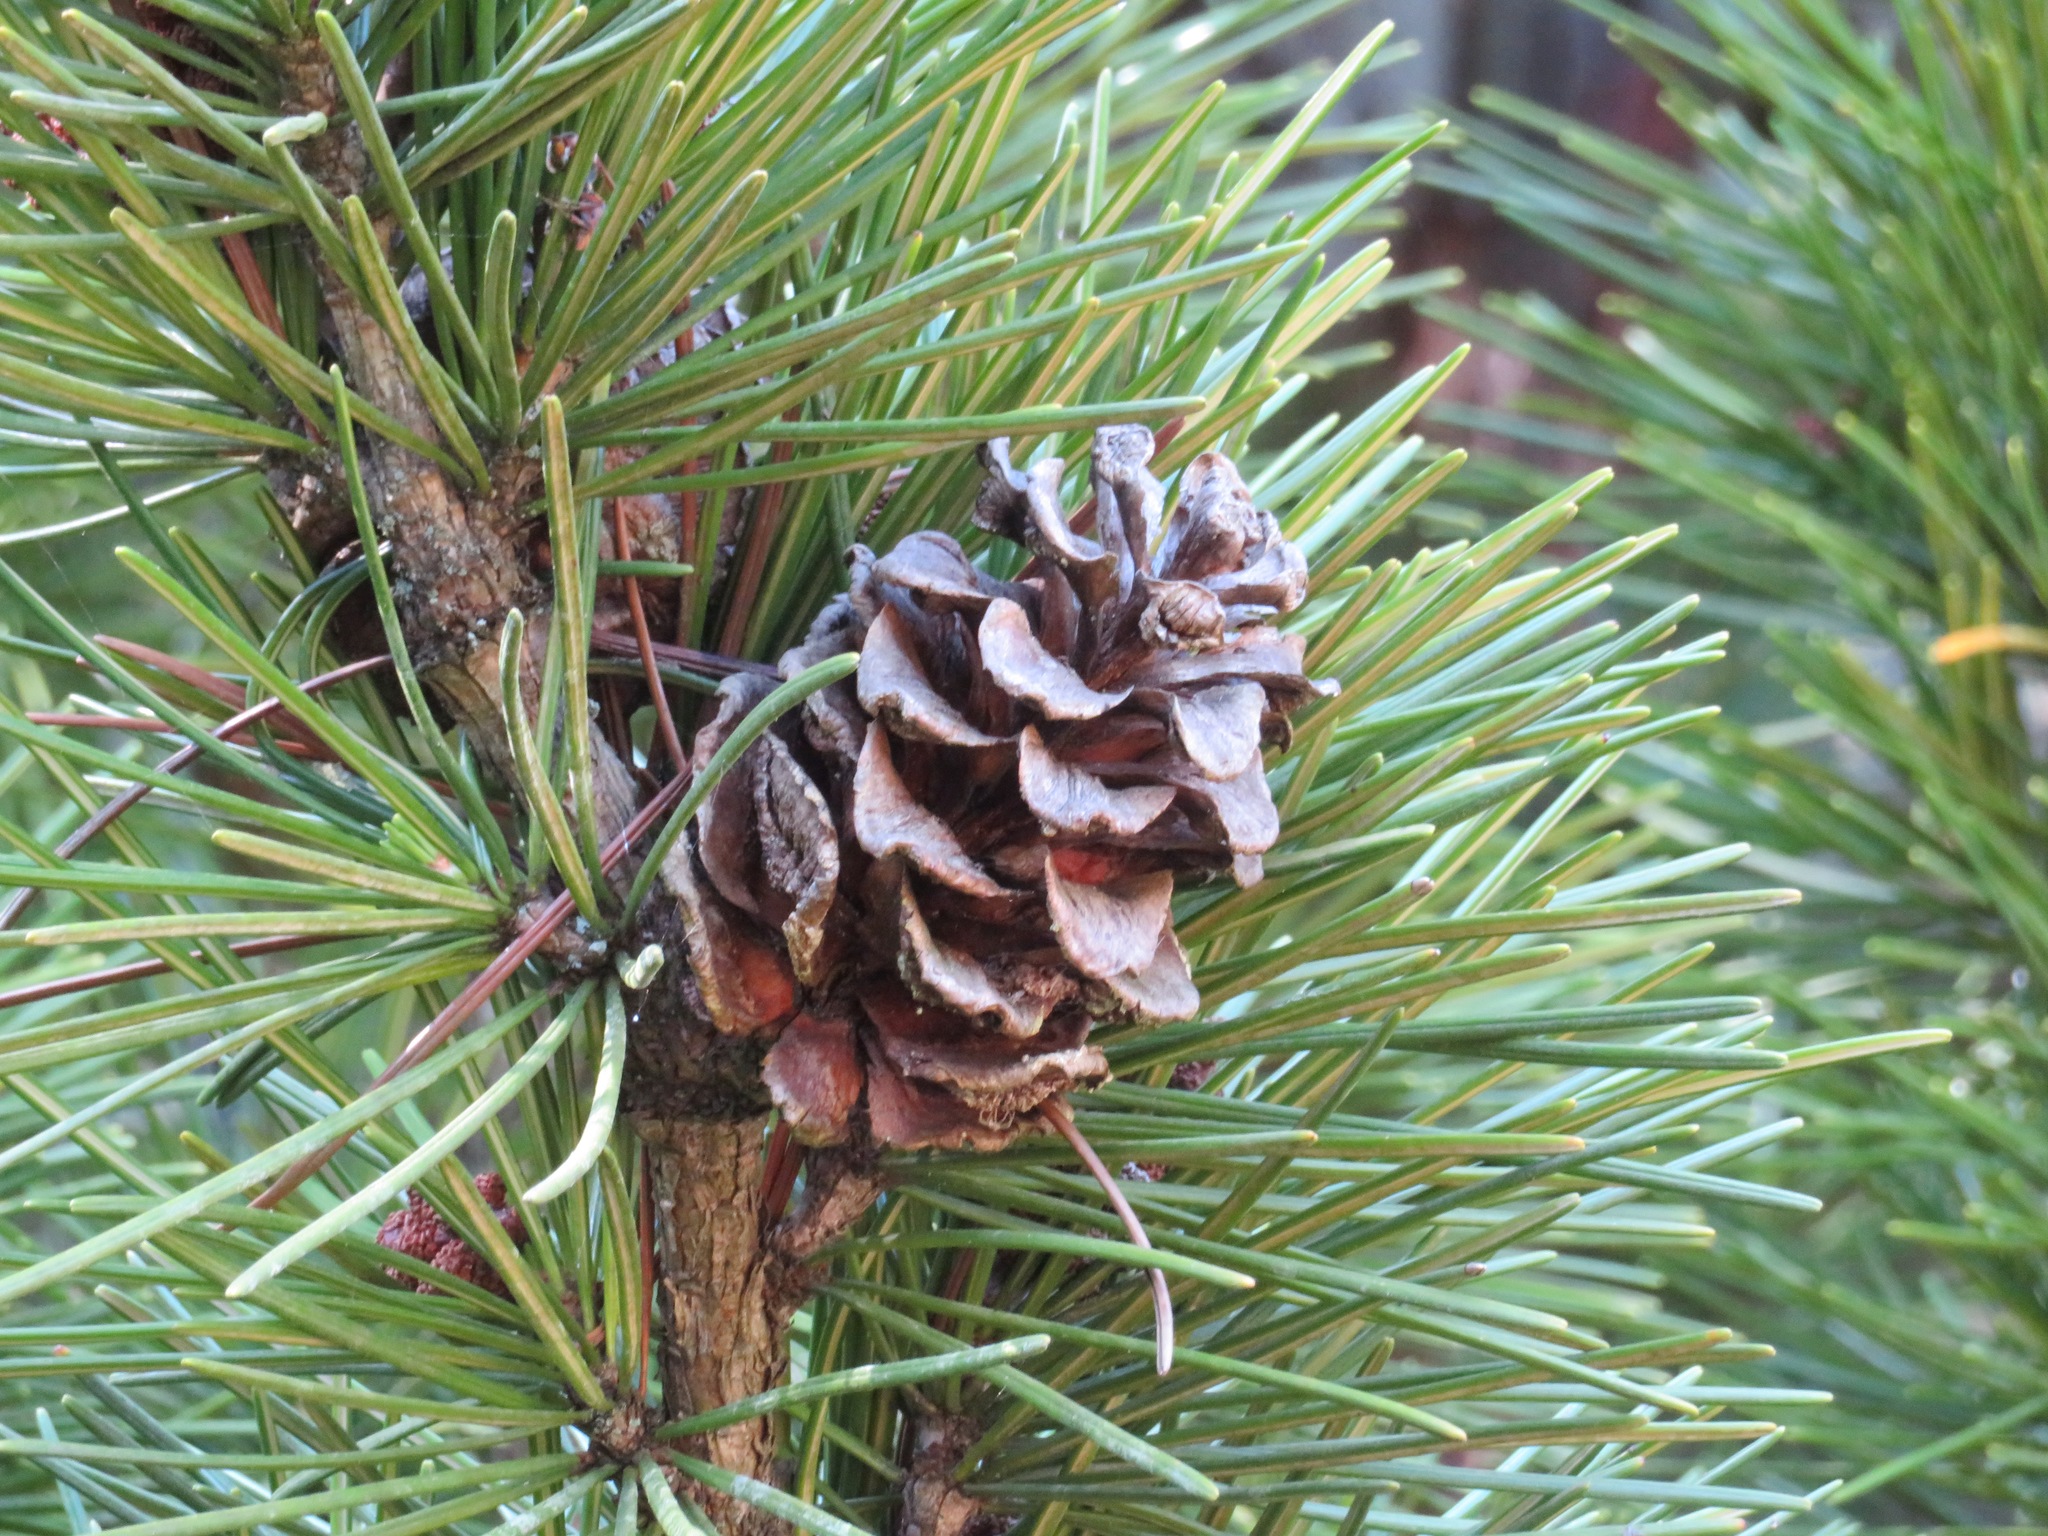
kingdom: Plantae
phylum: Tracheophyta
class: Pinopsida
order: Pinales
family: Sciadopityaceae
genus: Sciadopitys
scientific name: Sciadopitys verticillata
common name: Japanese umbrella pine
